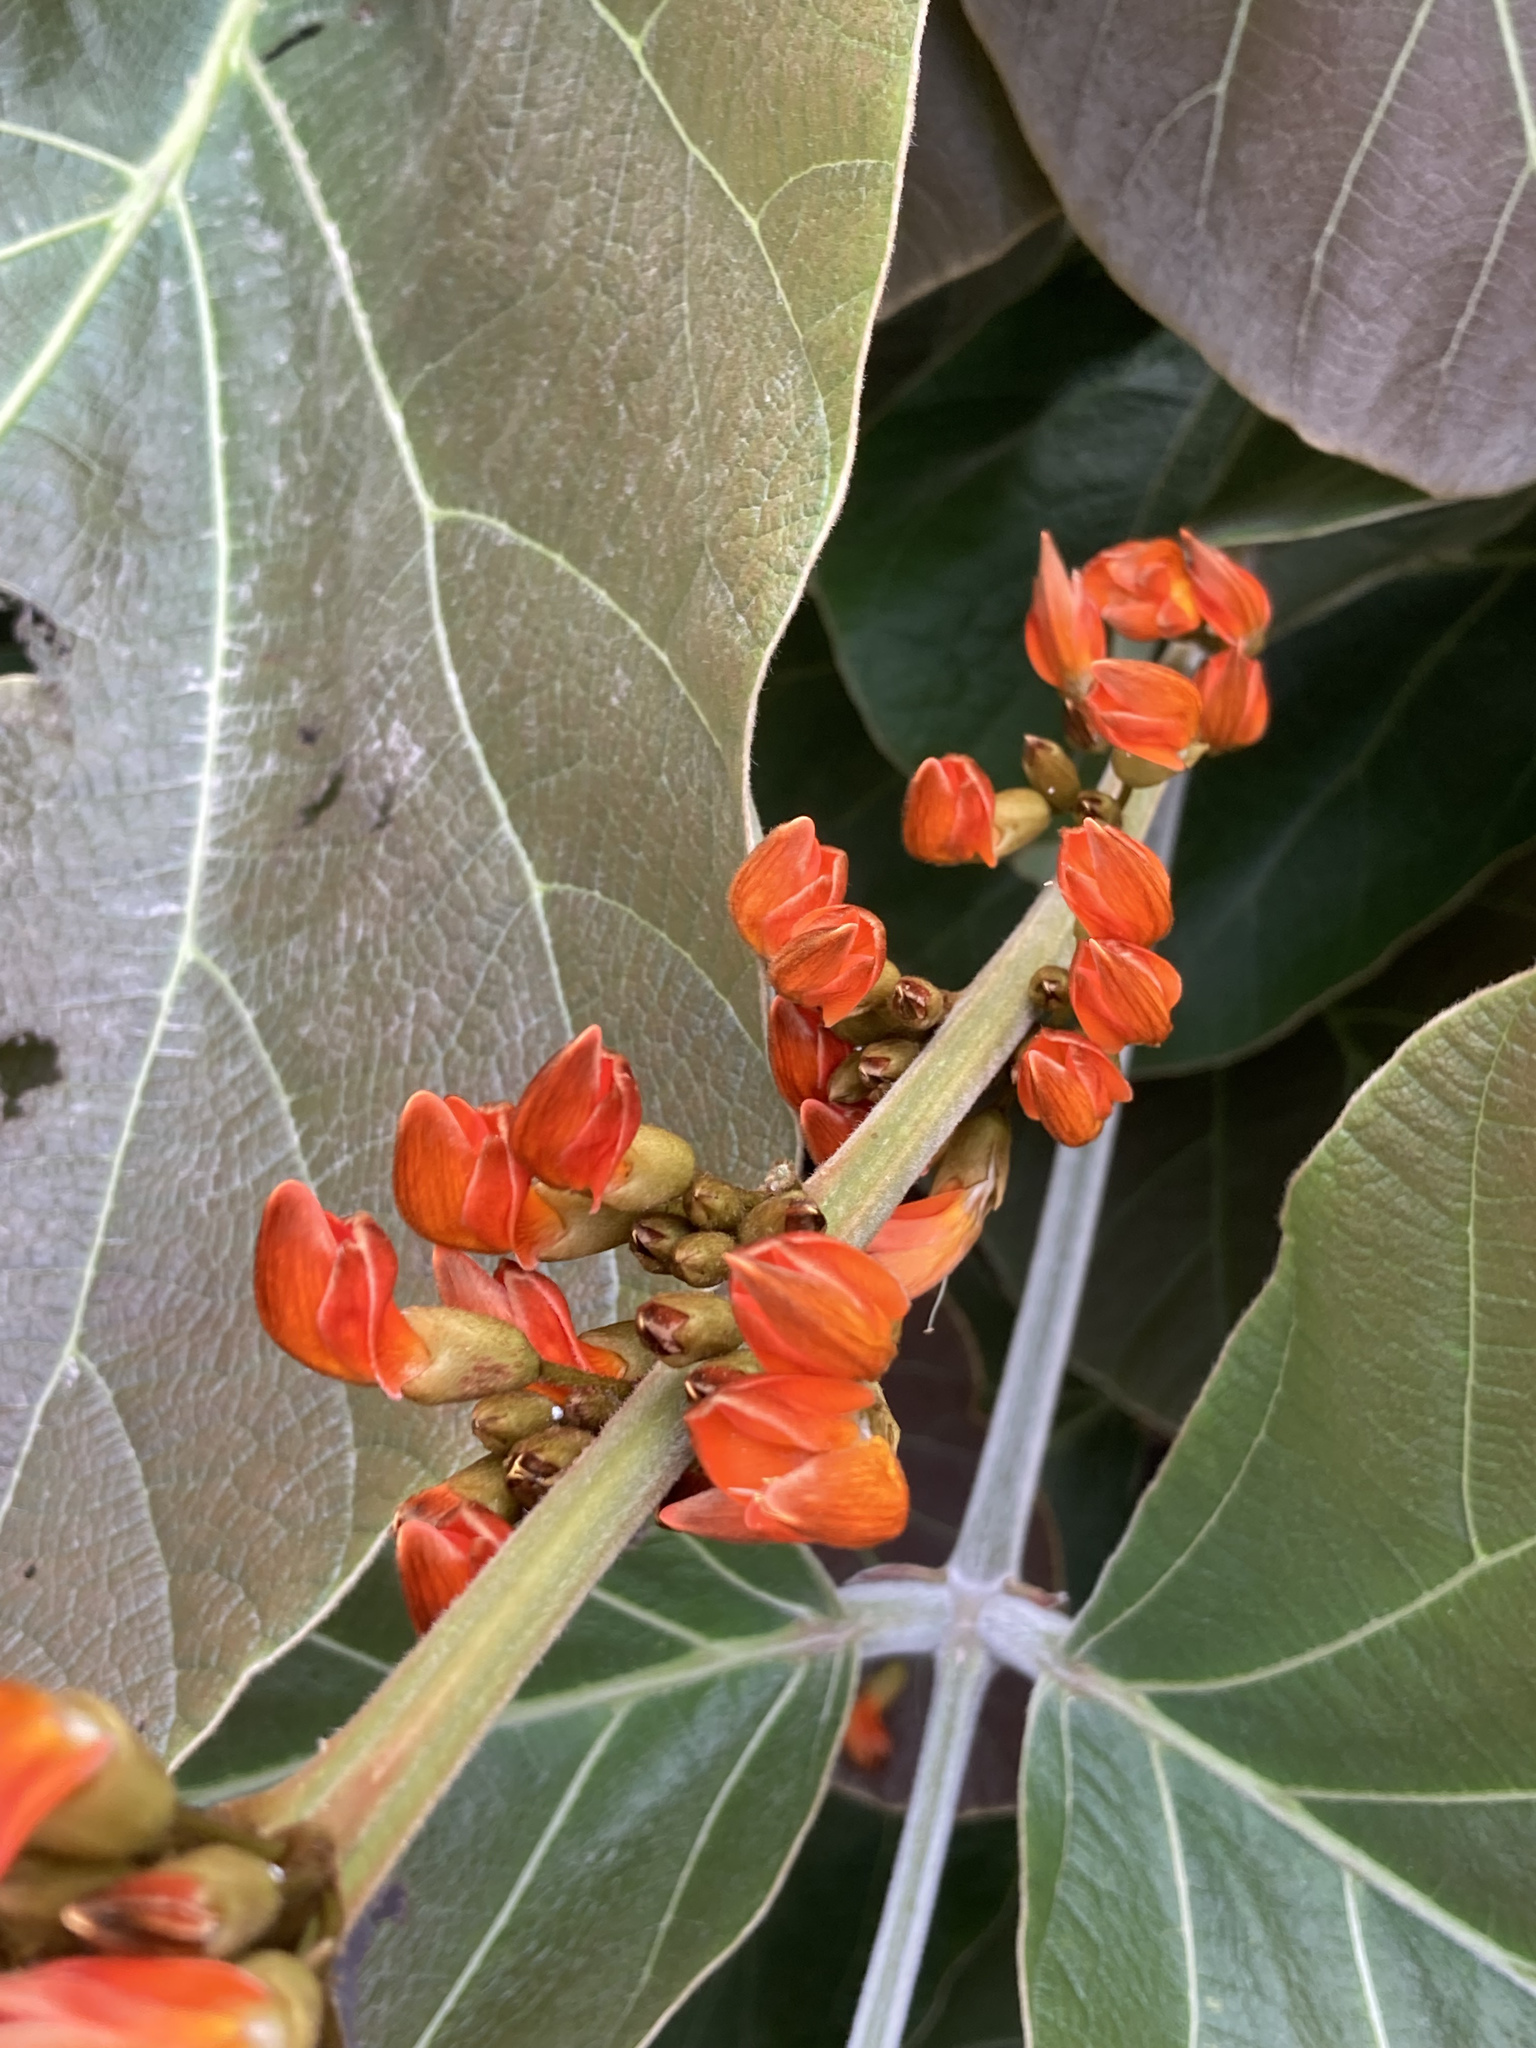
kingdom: Plantae
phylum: Tracheophyta
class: Magnoliopsida
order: Fabales
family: Fabaceae
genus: Butea
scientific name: Butea buteiformis
